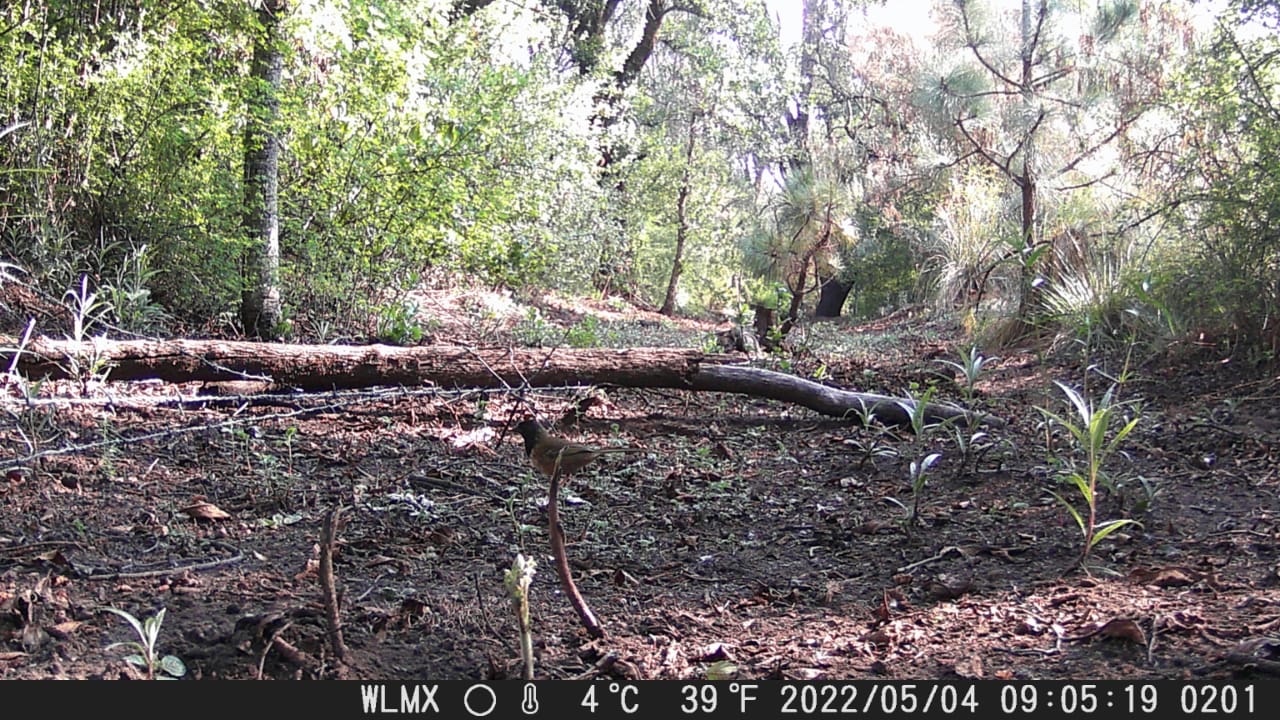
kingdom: Animalia
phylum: Chordata
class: Aves
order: Passeriformes
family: Passerellidae
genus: Pipilo
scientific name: Pipilo maculatus
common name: Spotted towhee
